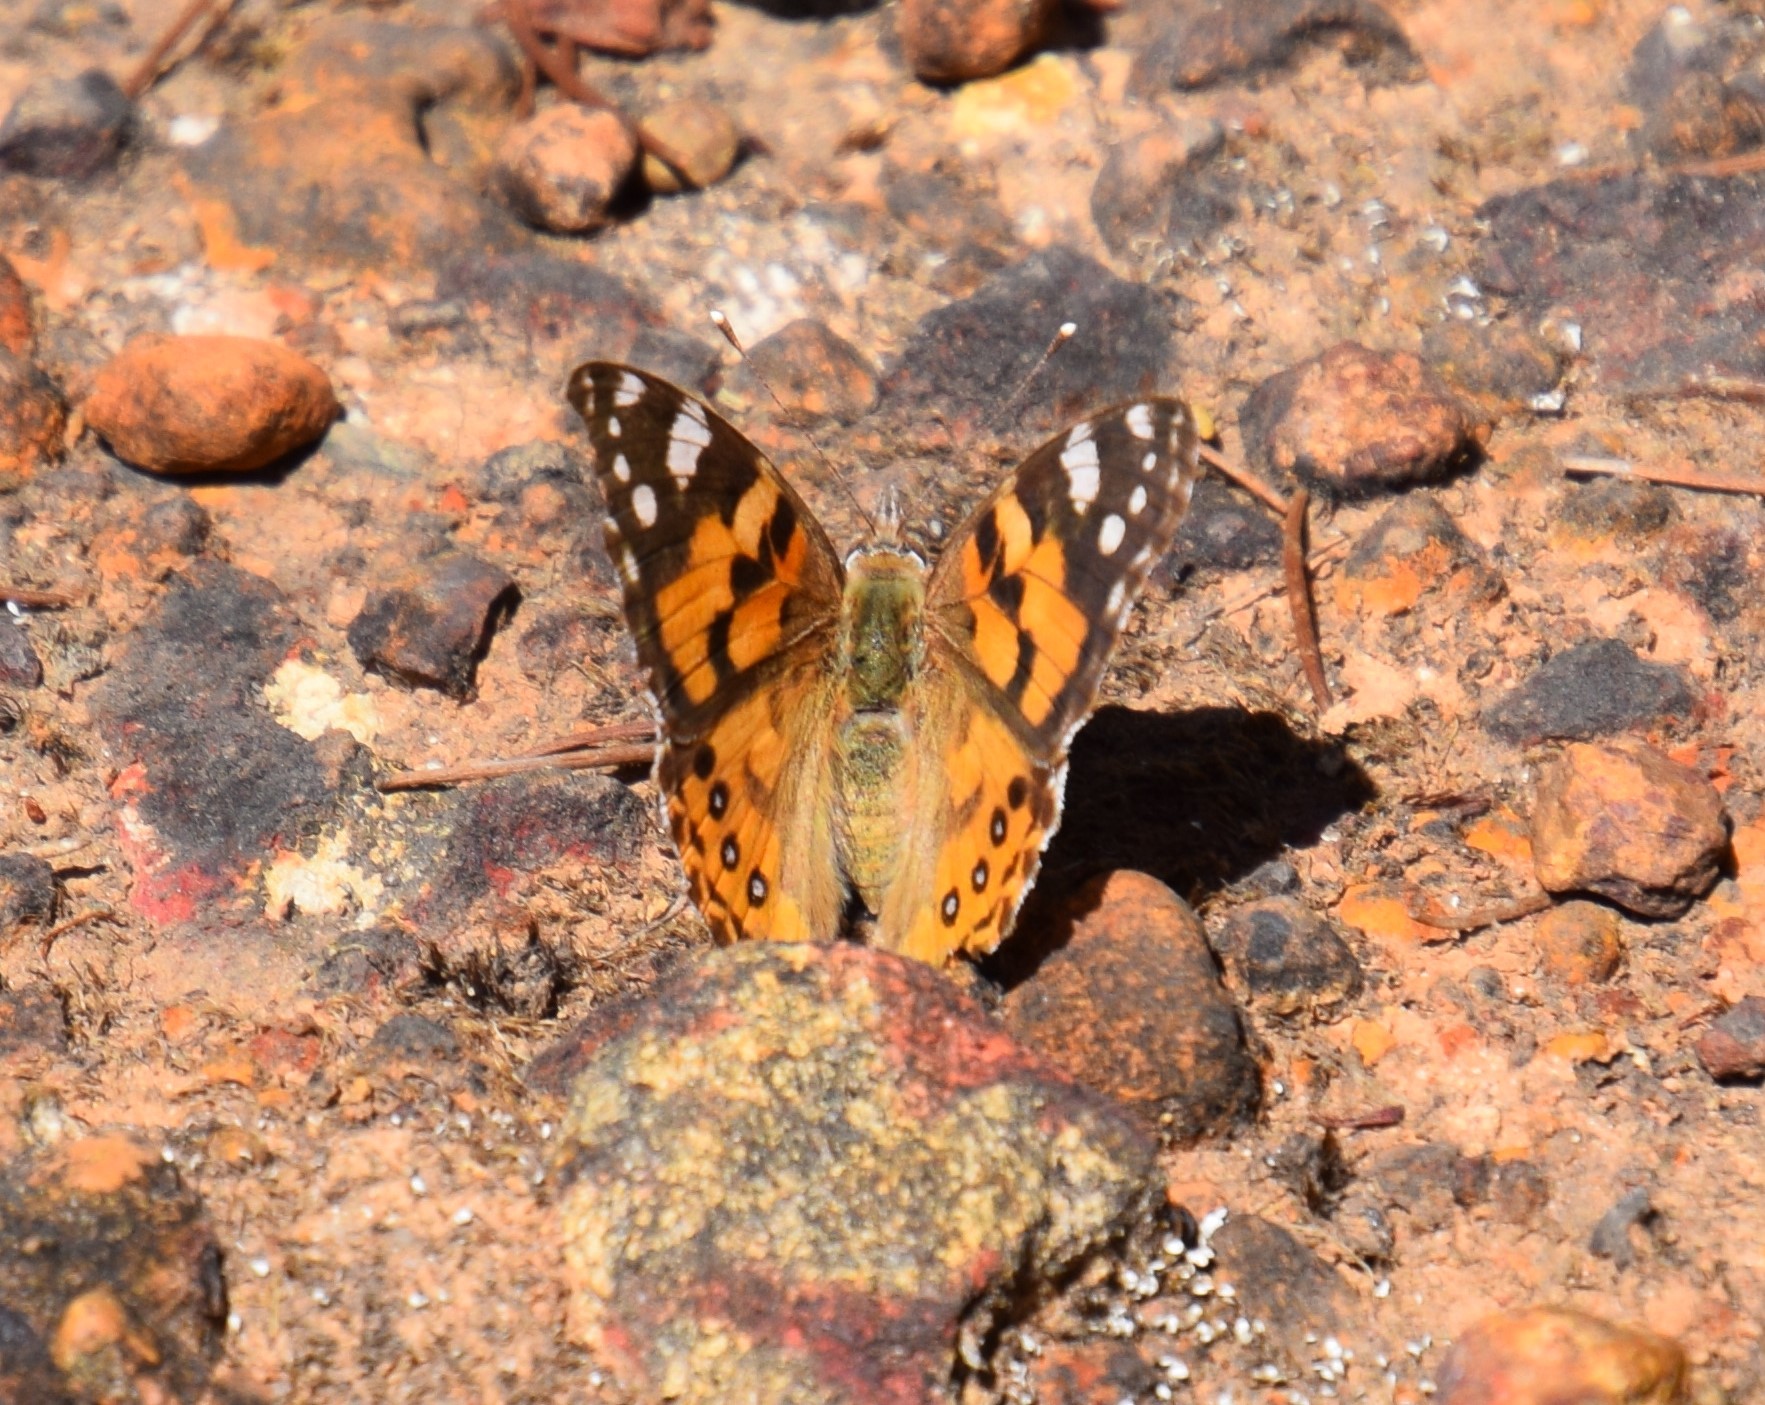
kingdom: Animalia
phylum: Arthropoda
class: Insecta
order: Lepidoptera
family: Nymphalidae
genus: Vanessa
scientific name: Vanessa kershawi
